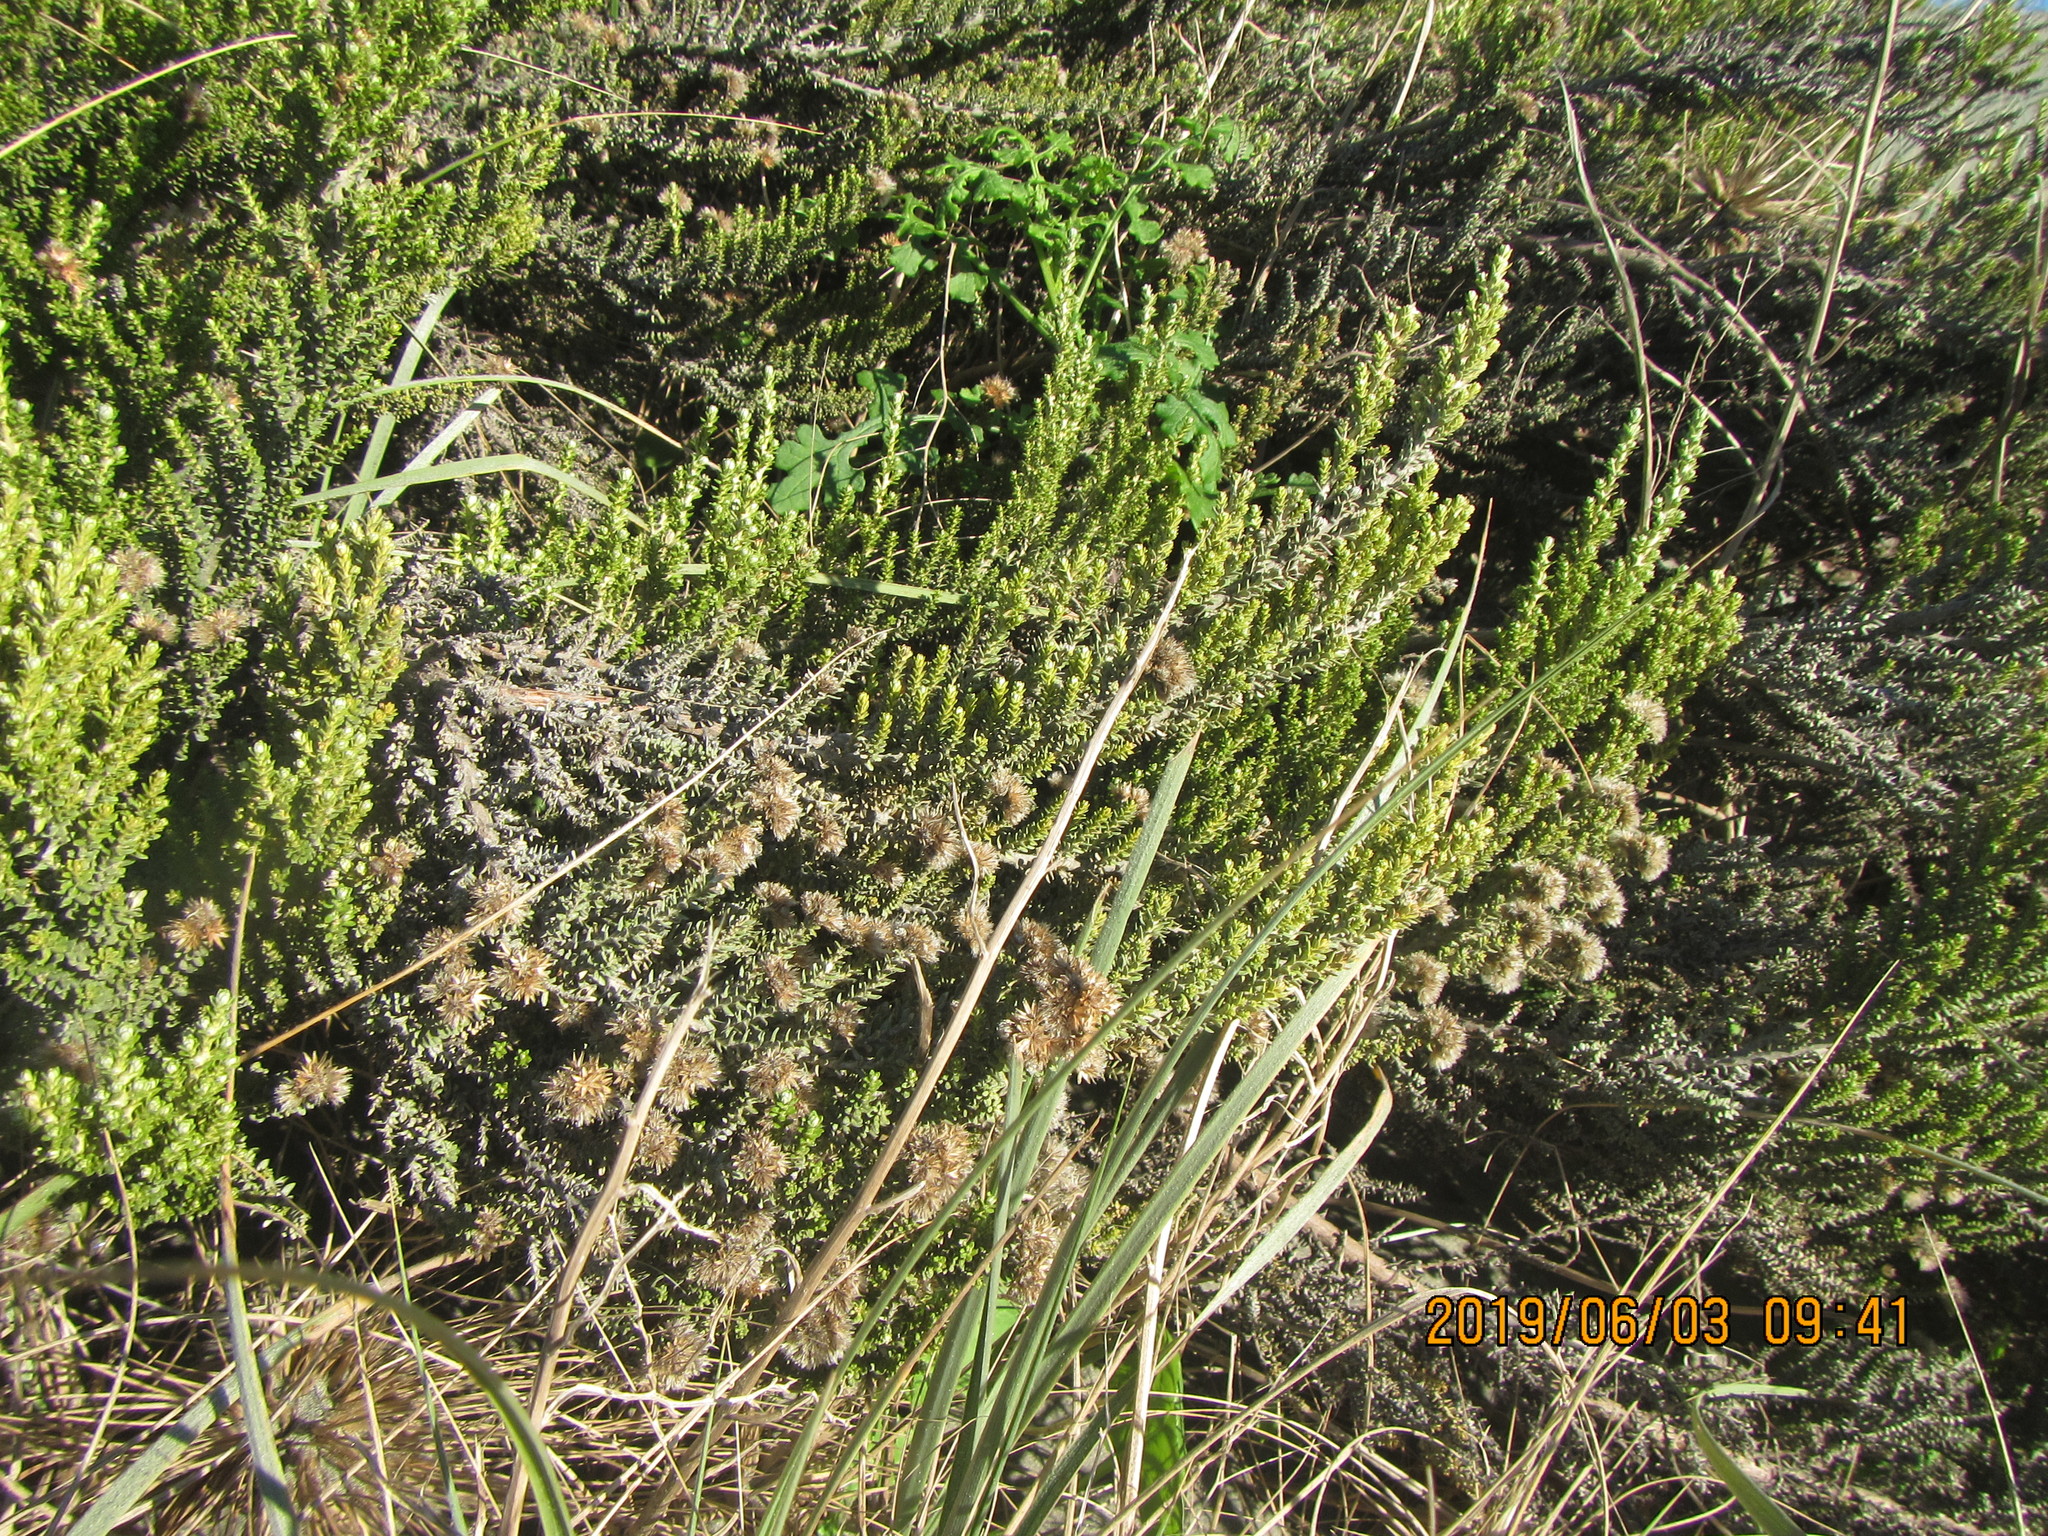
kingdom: Plantae
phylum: Tracheophyta
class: Magnoliopsida
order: Asterales
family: Asteraceae
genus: Ozothamnus
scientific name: Ozothamnus leptophyllus
